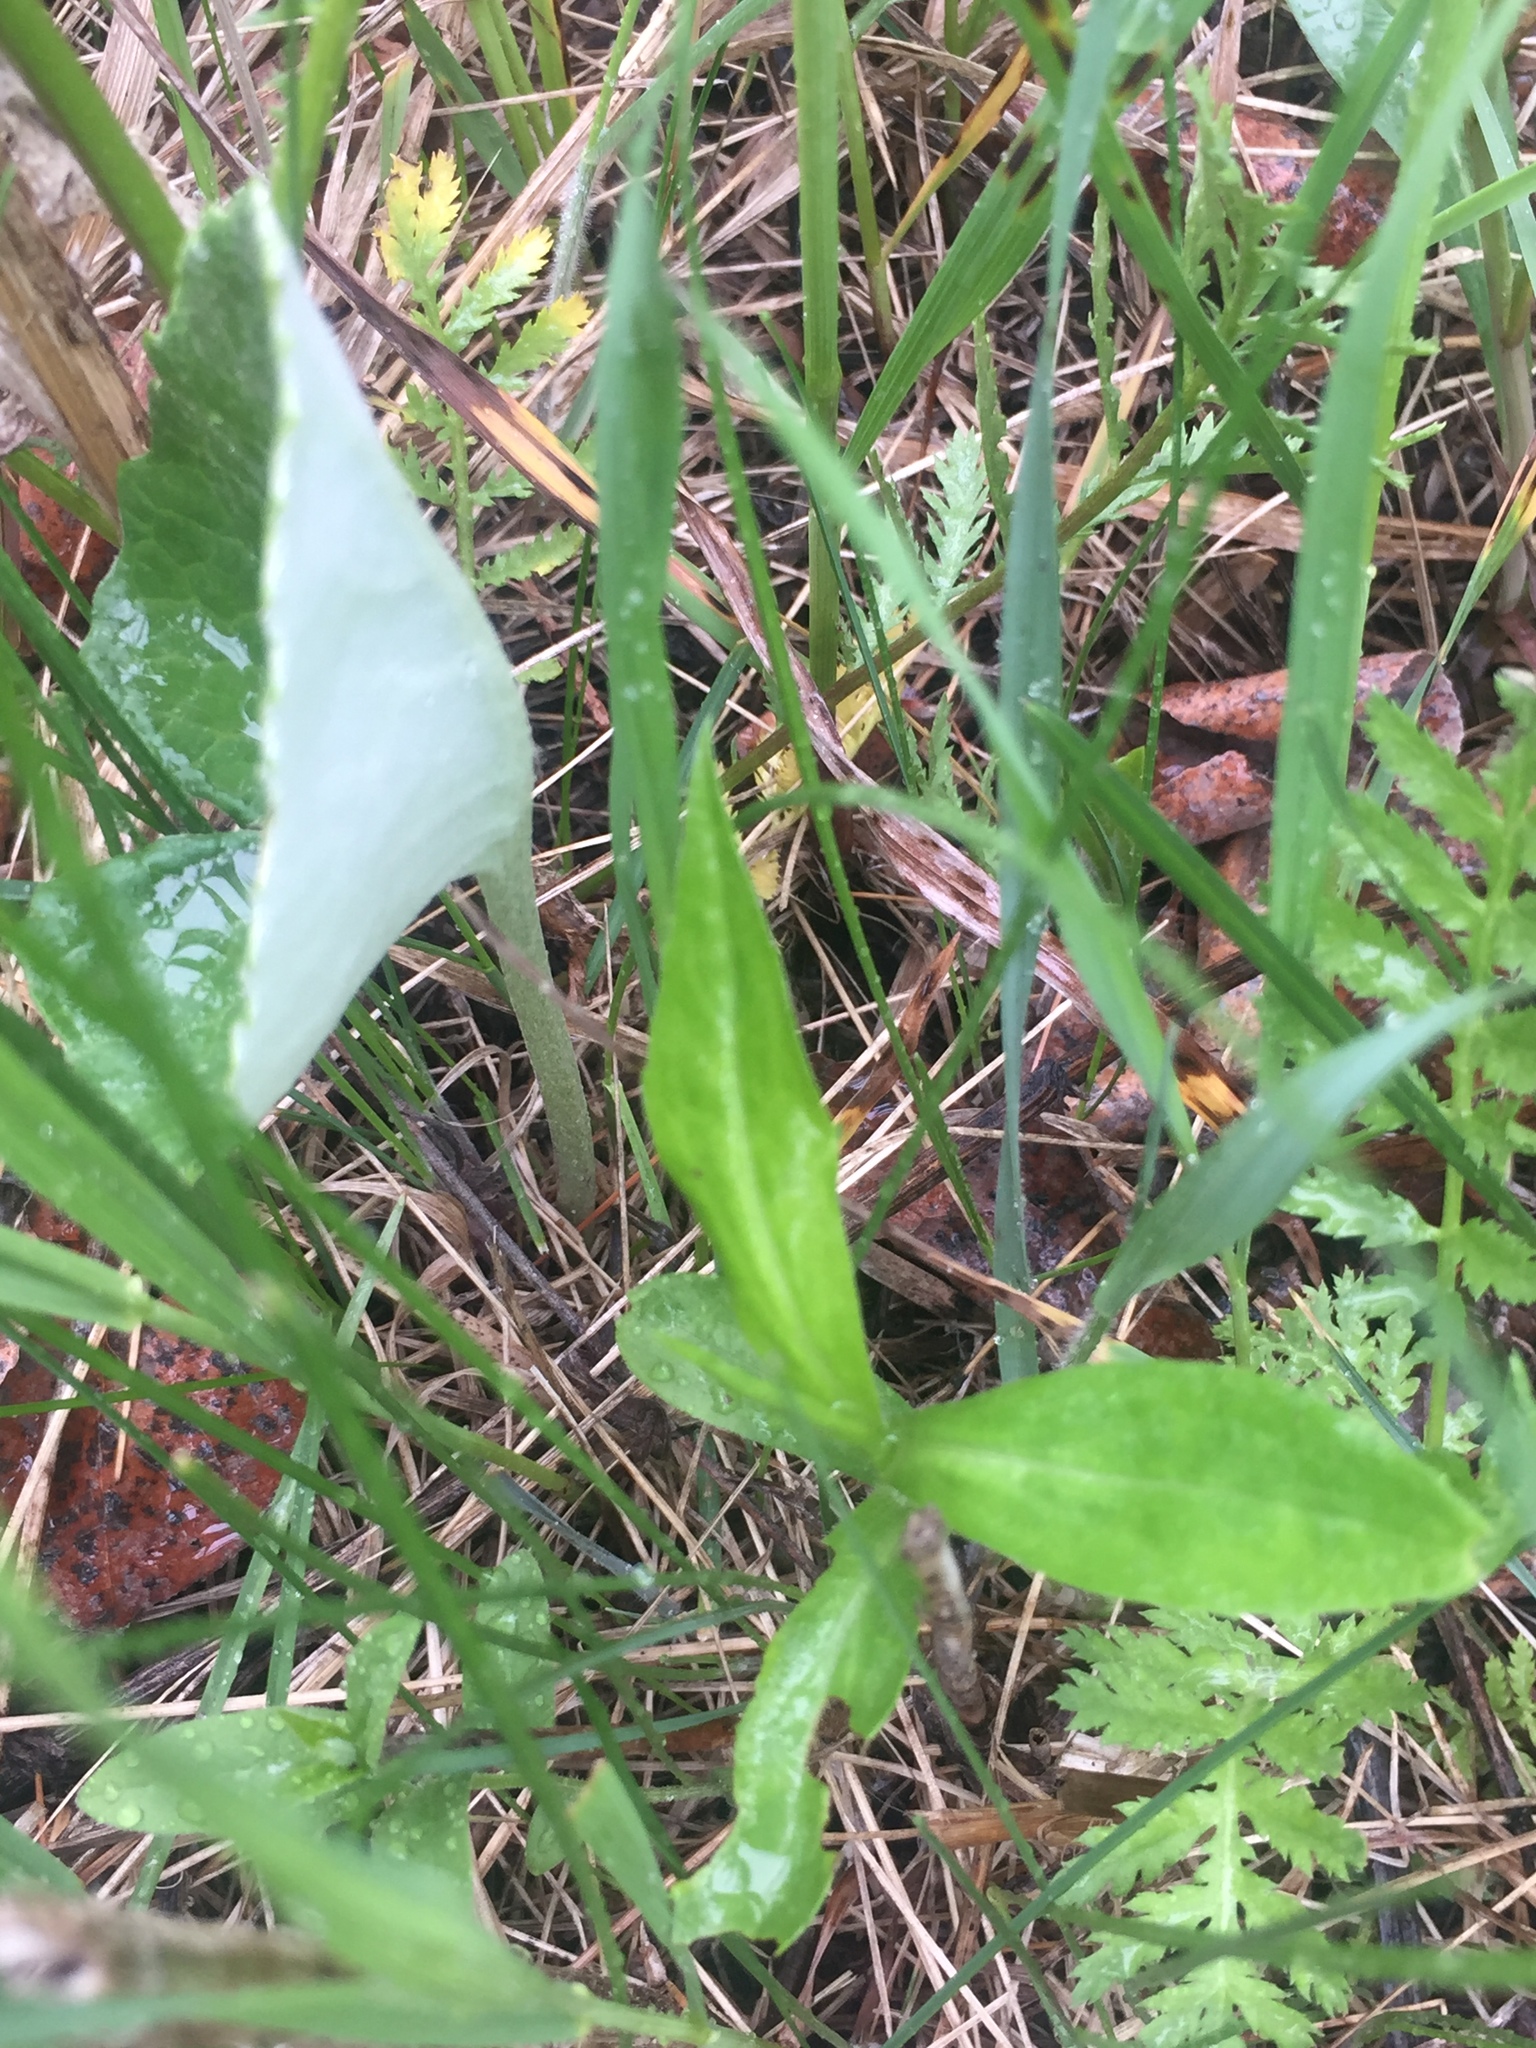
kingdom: Plantae
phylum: Tracheophyta
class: Magnoliopsida
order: Asterales
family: Asteraceae
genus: Petasites
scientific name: Petasites frigidus
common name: Arctic butterbur
